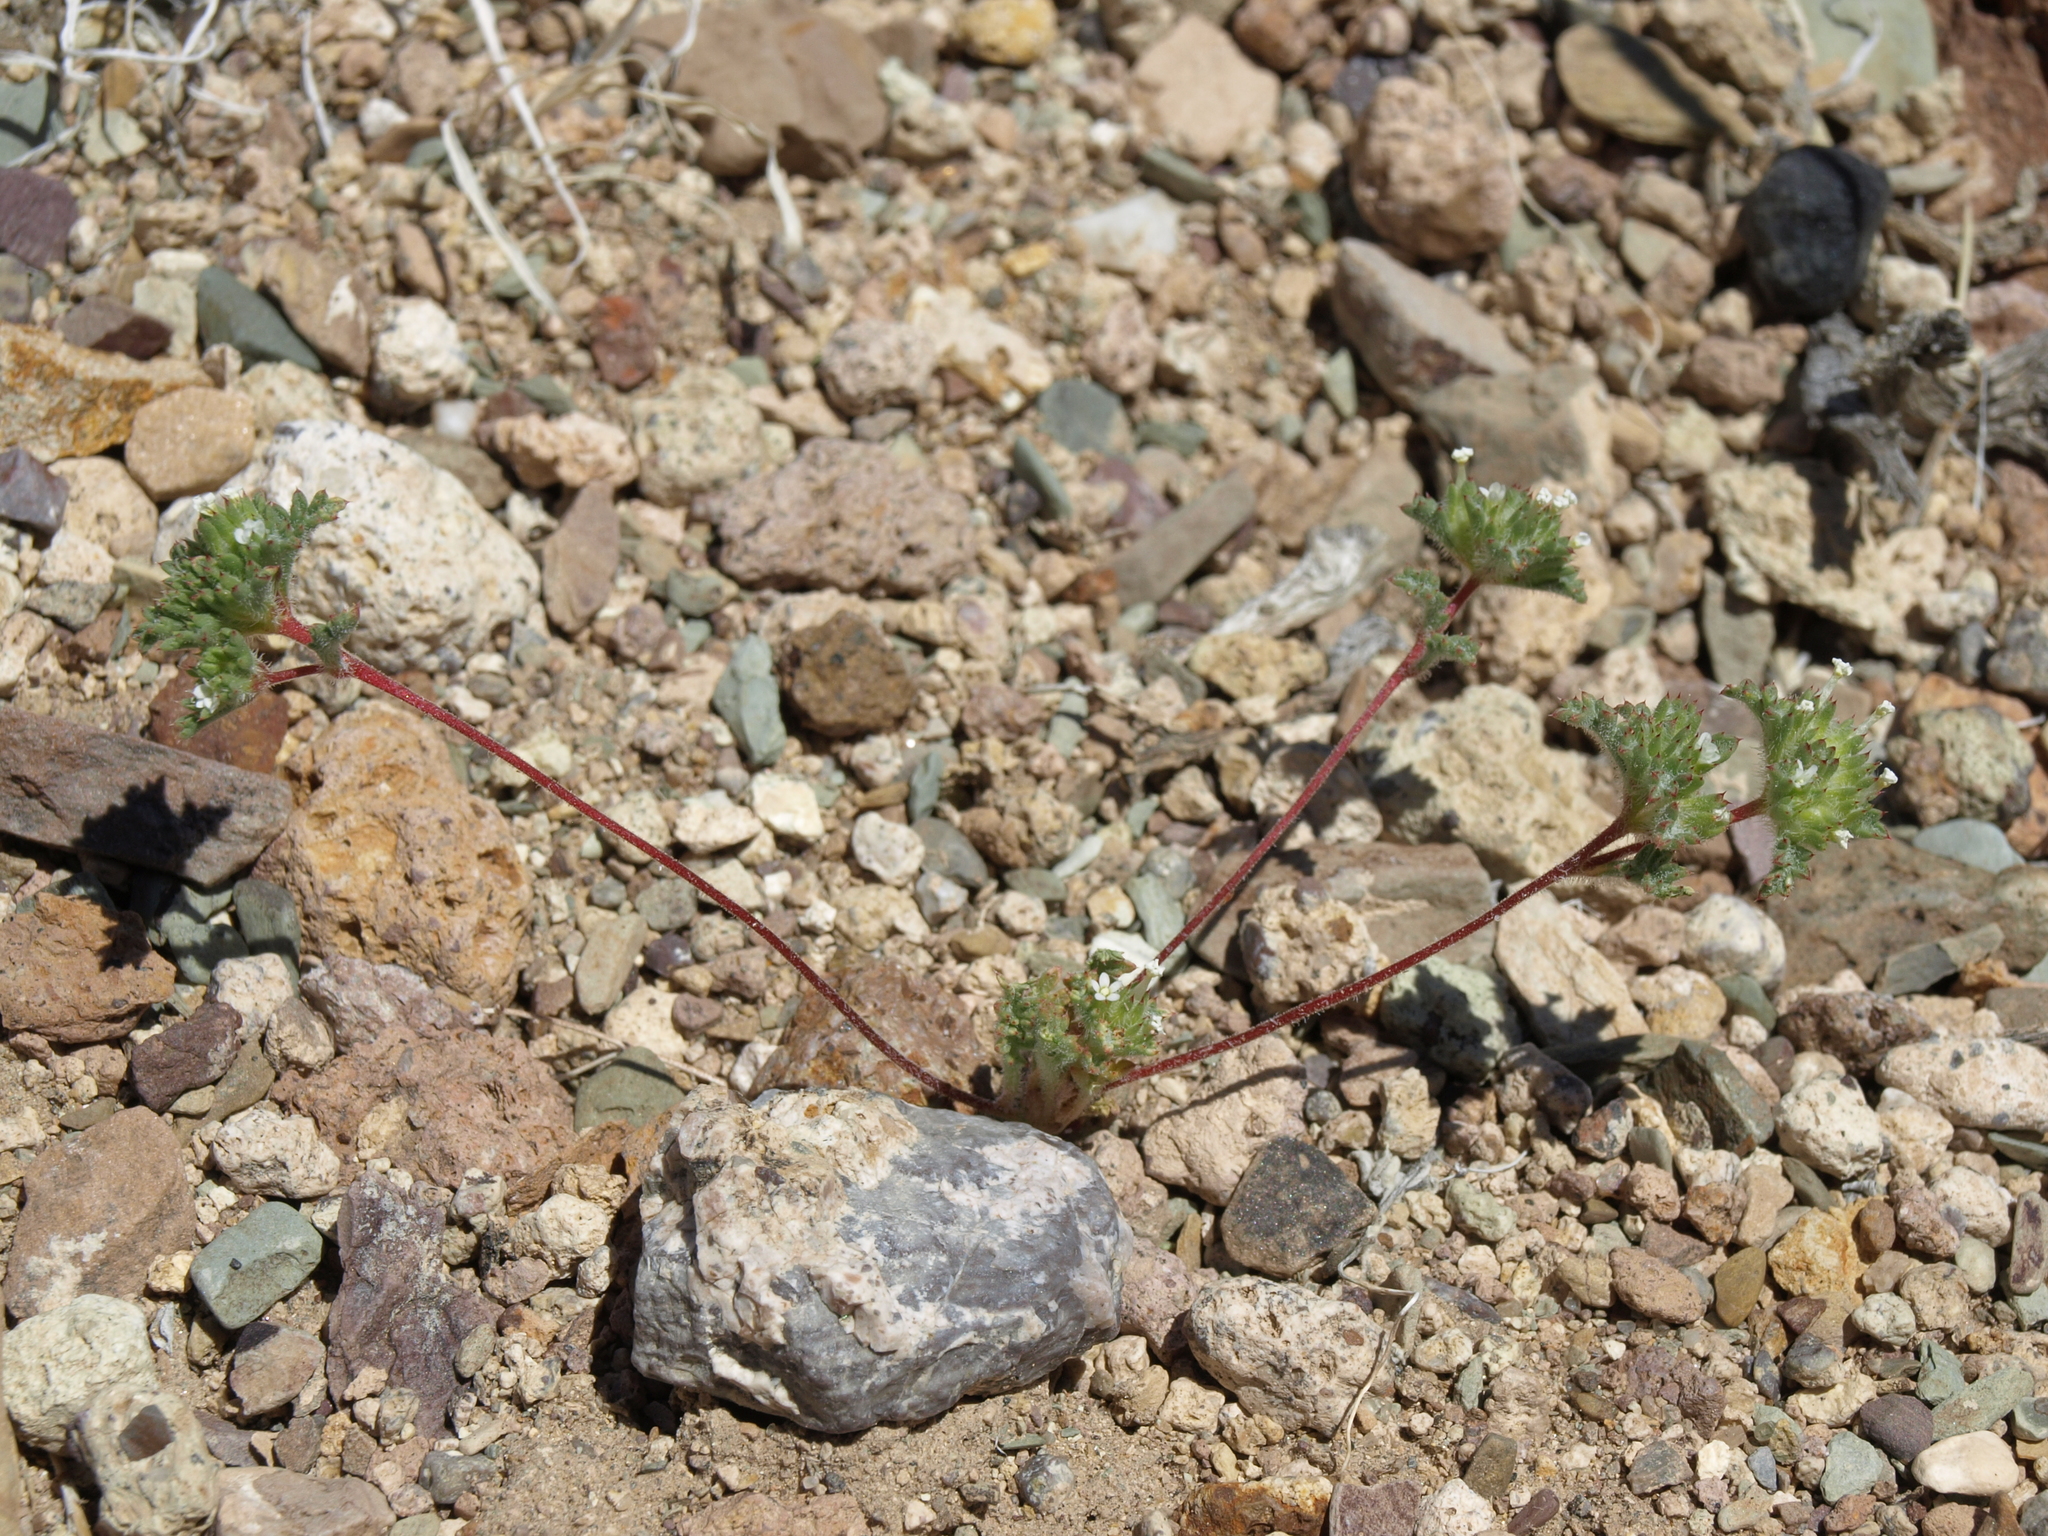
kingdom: Plantae
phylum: Tracheophyta
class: Magnoliopsida
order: Ericales
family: Polemoniaceae
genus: Ipomopsis
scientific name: Ipomopsis polycladon
